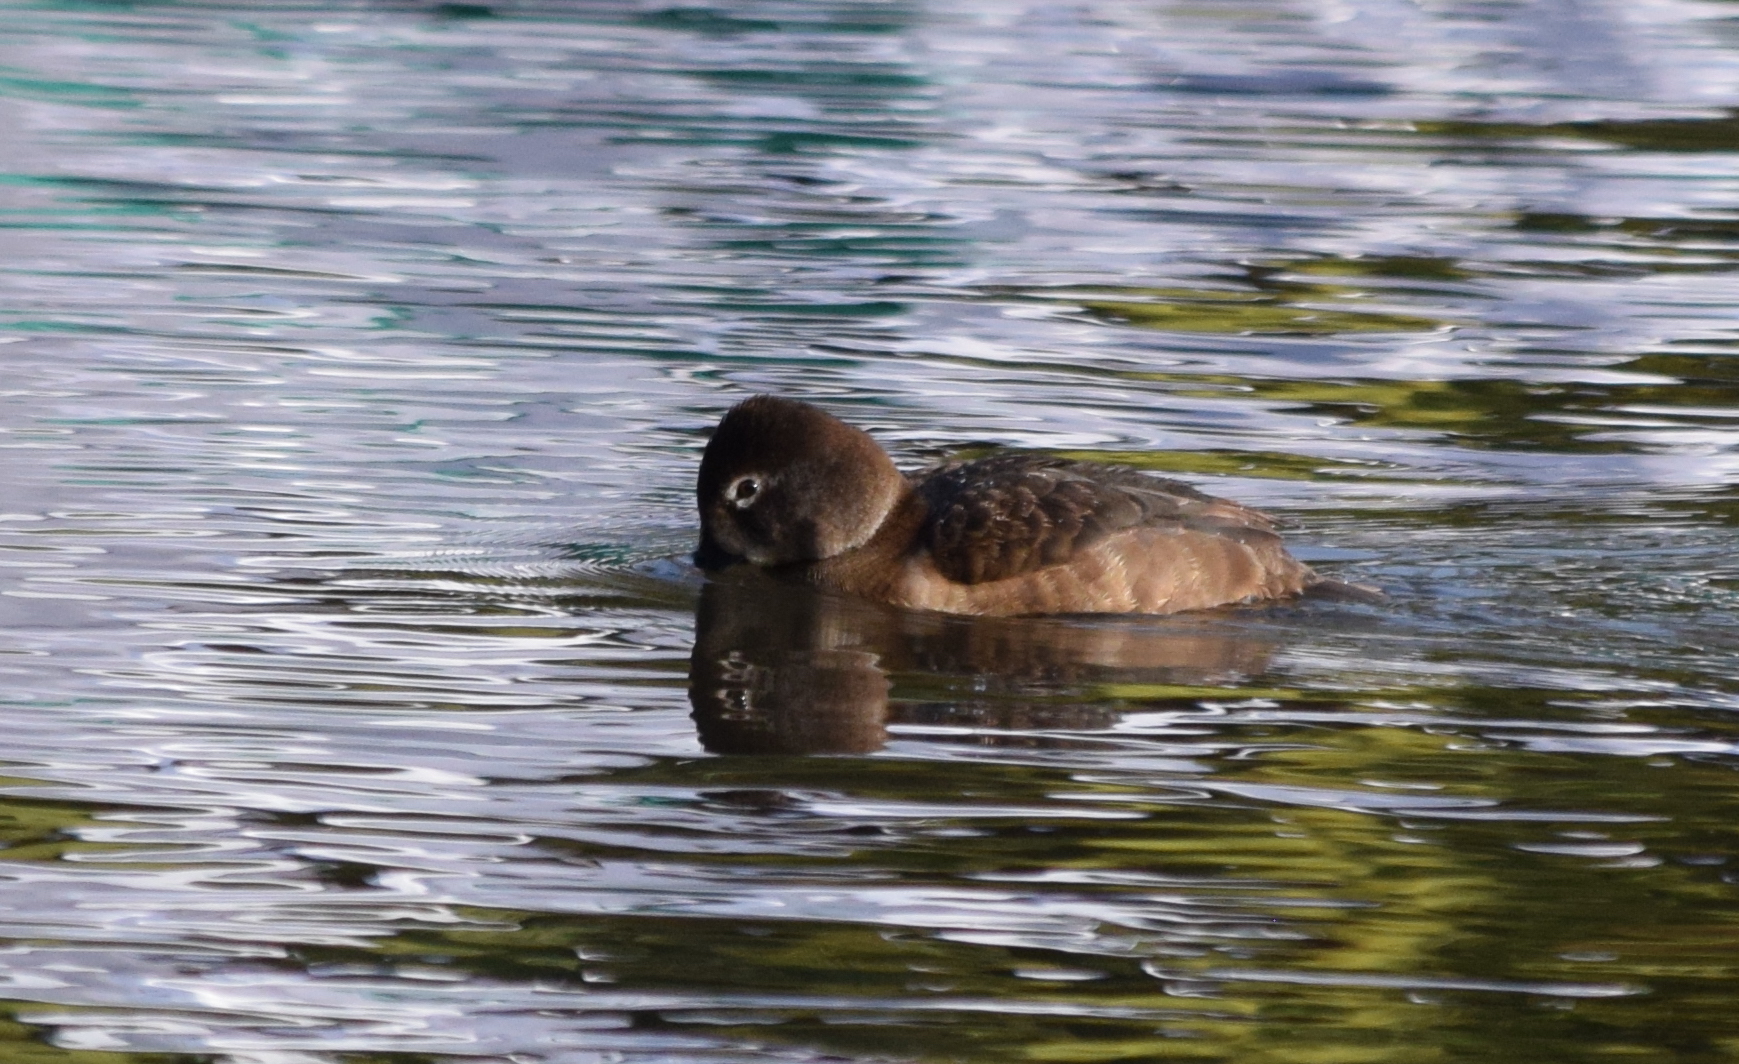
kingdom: Animalia
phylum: Chordata
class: Aves
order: Anseriformes
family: Anatidae
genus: Aythya
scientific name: Aythya collaris
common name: Ring-necked duck
